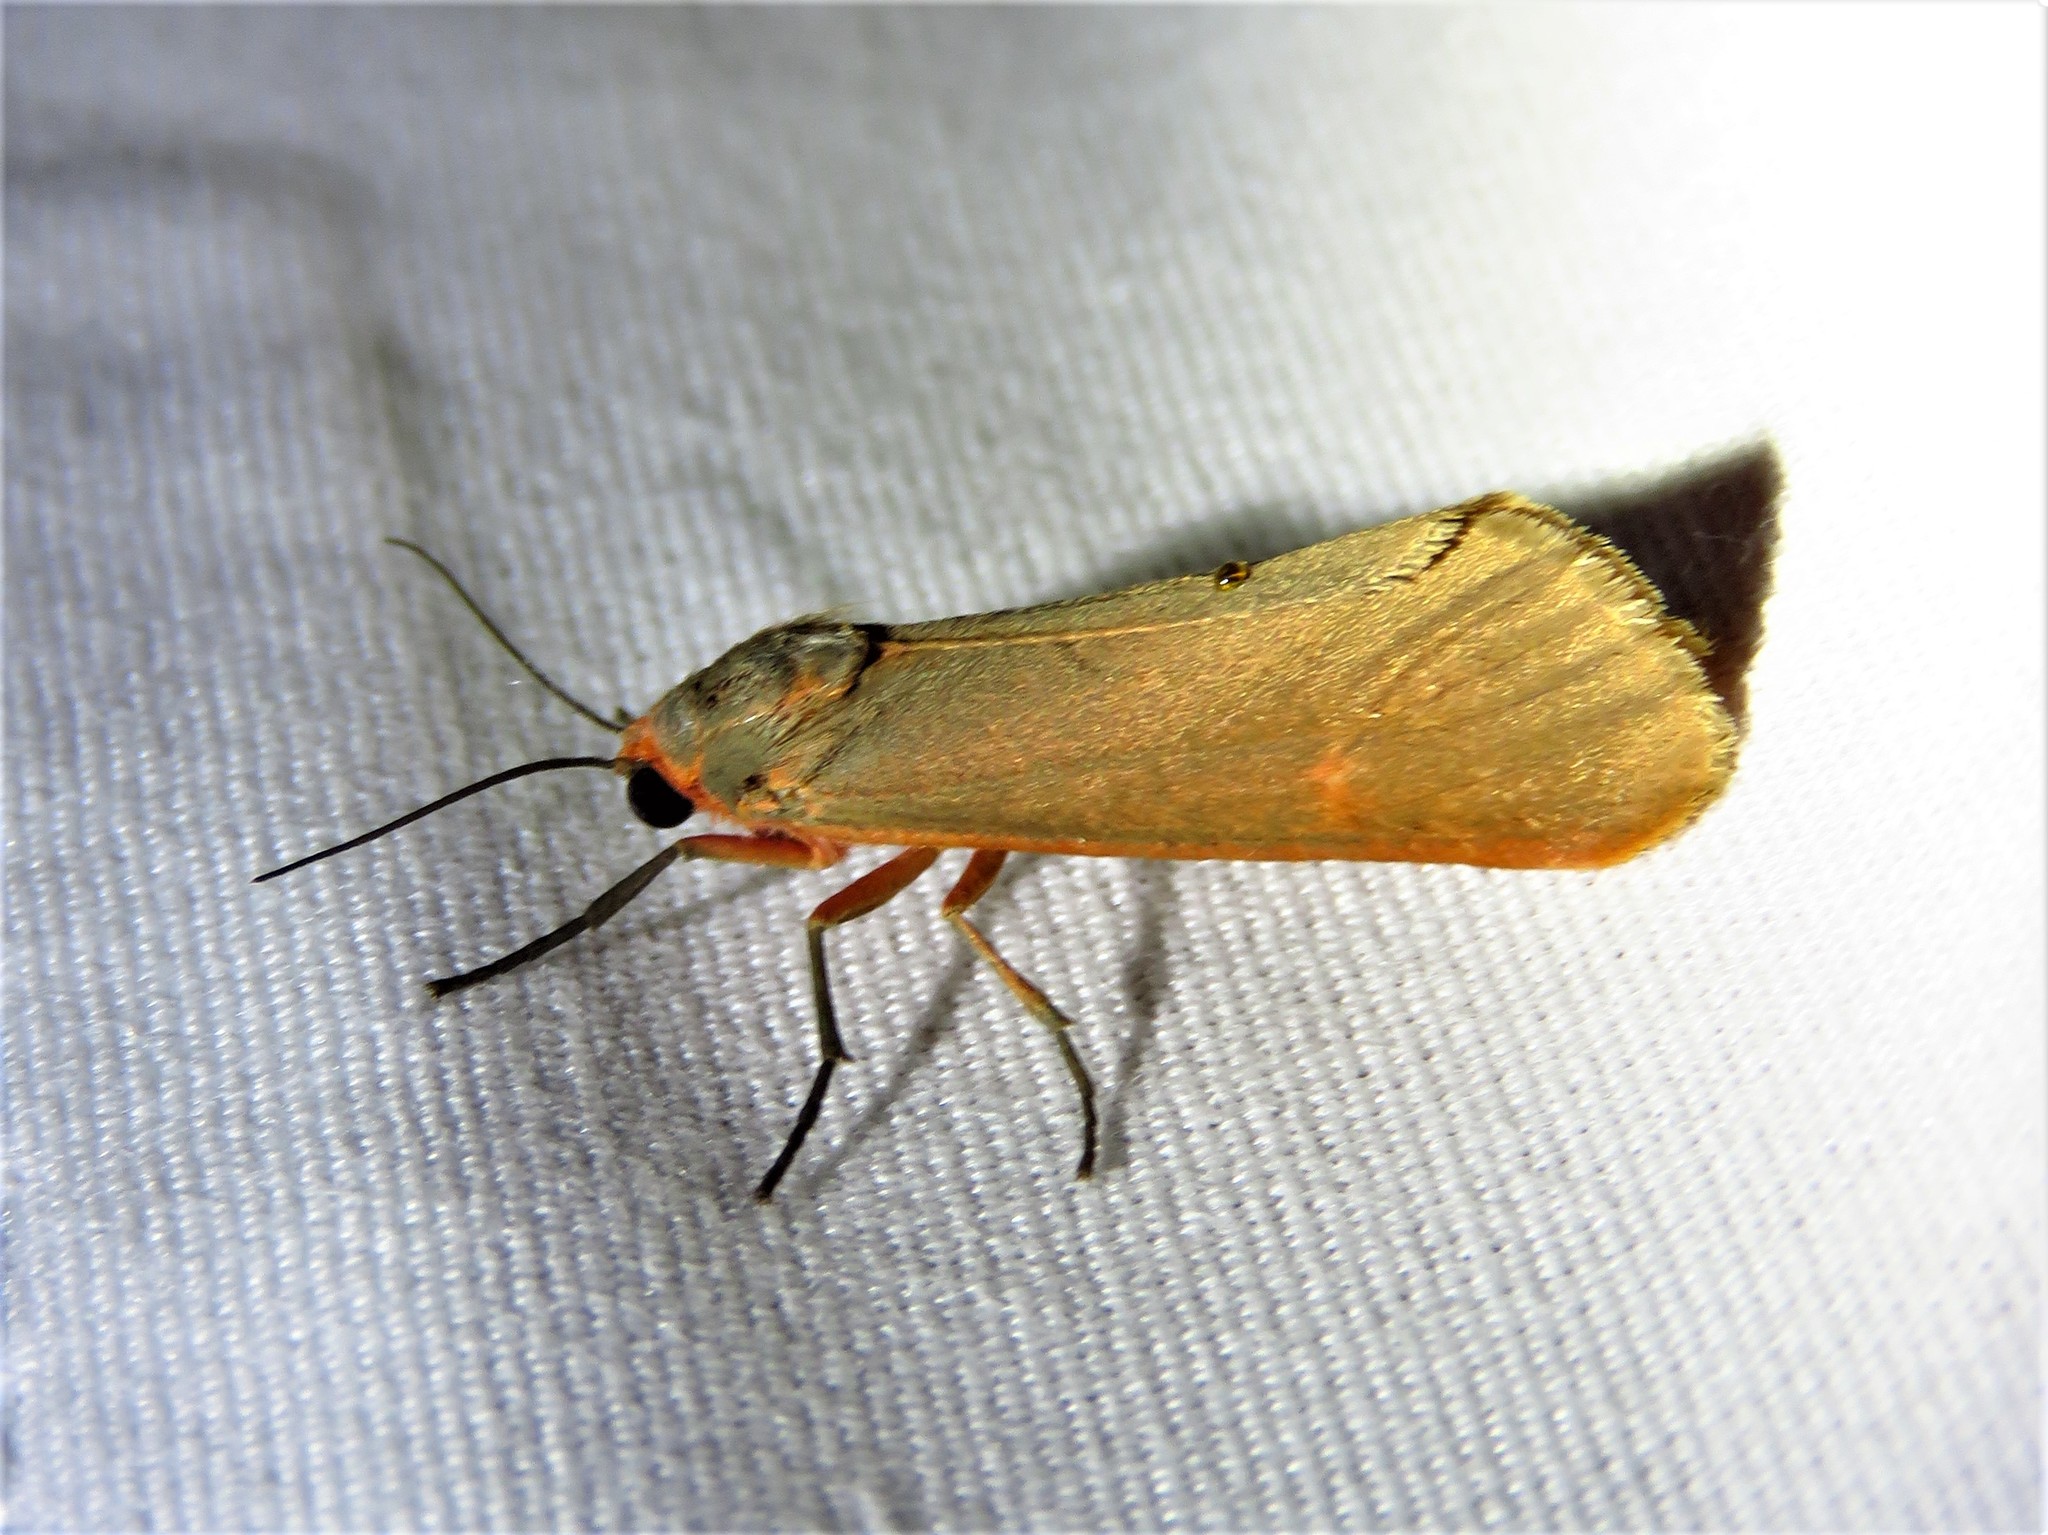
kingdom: Animalia
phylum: Arthropoda
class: Insecta
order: Lepidoptera
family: Erebidae
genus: Virbia
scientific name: Virbia costata
